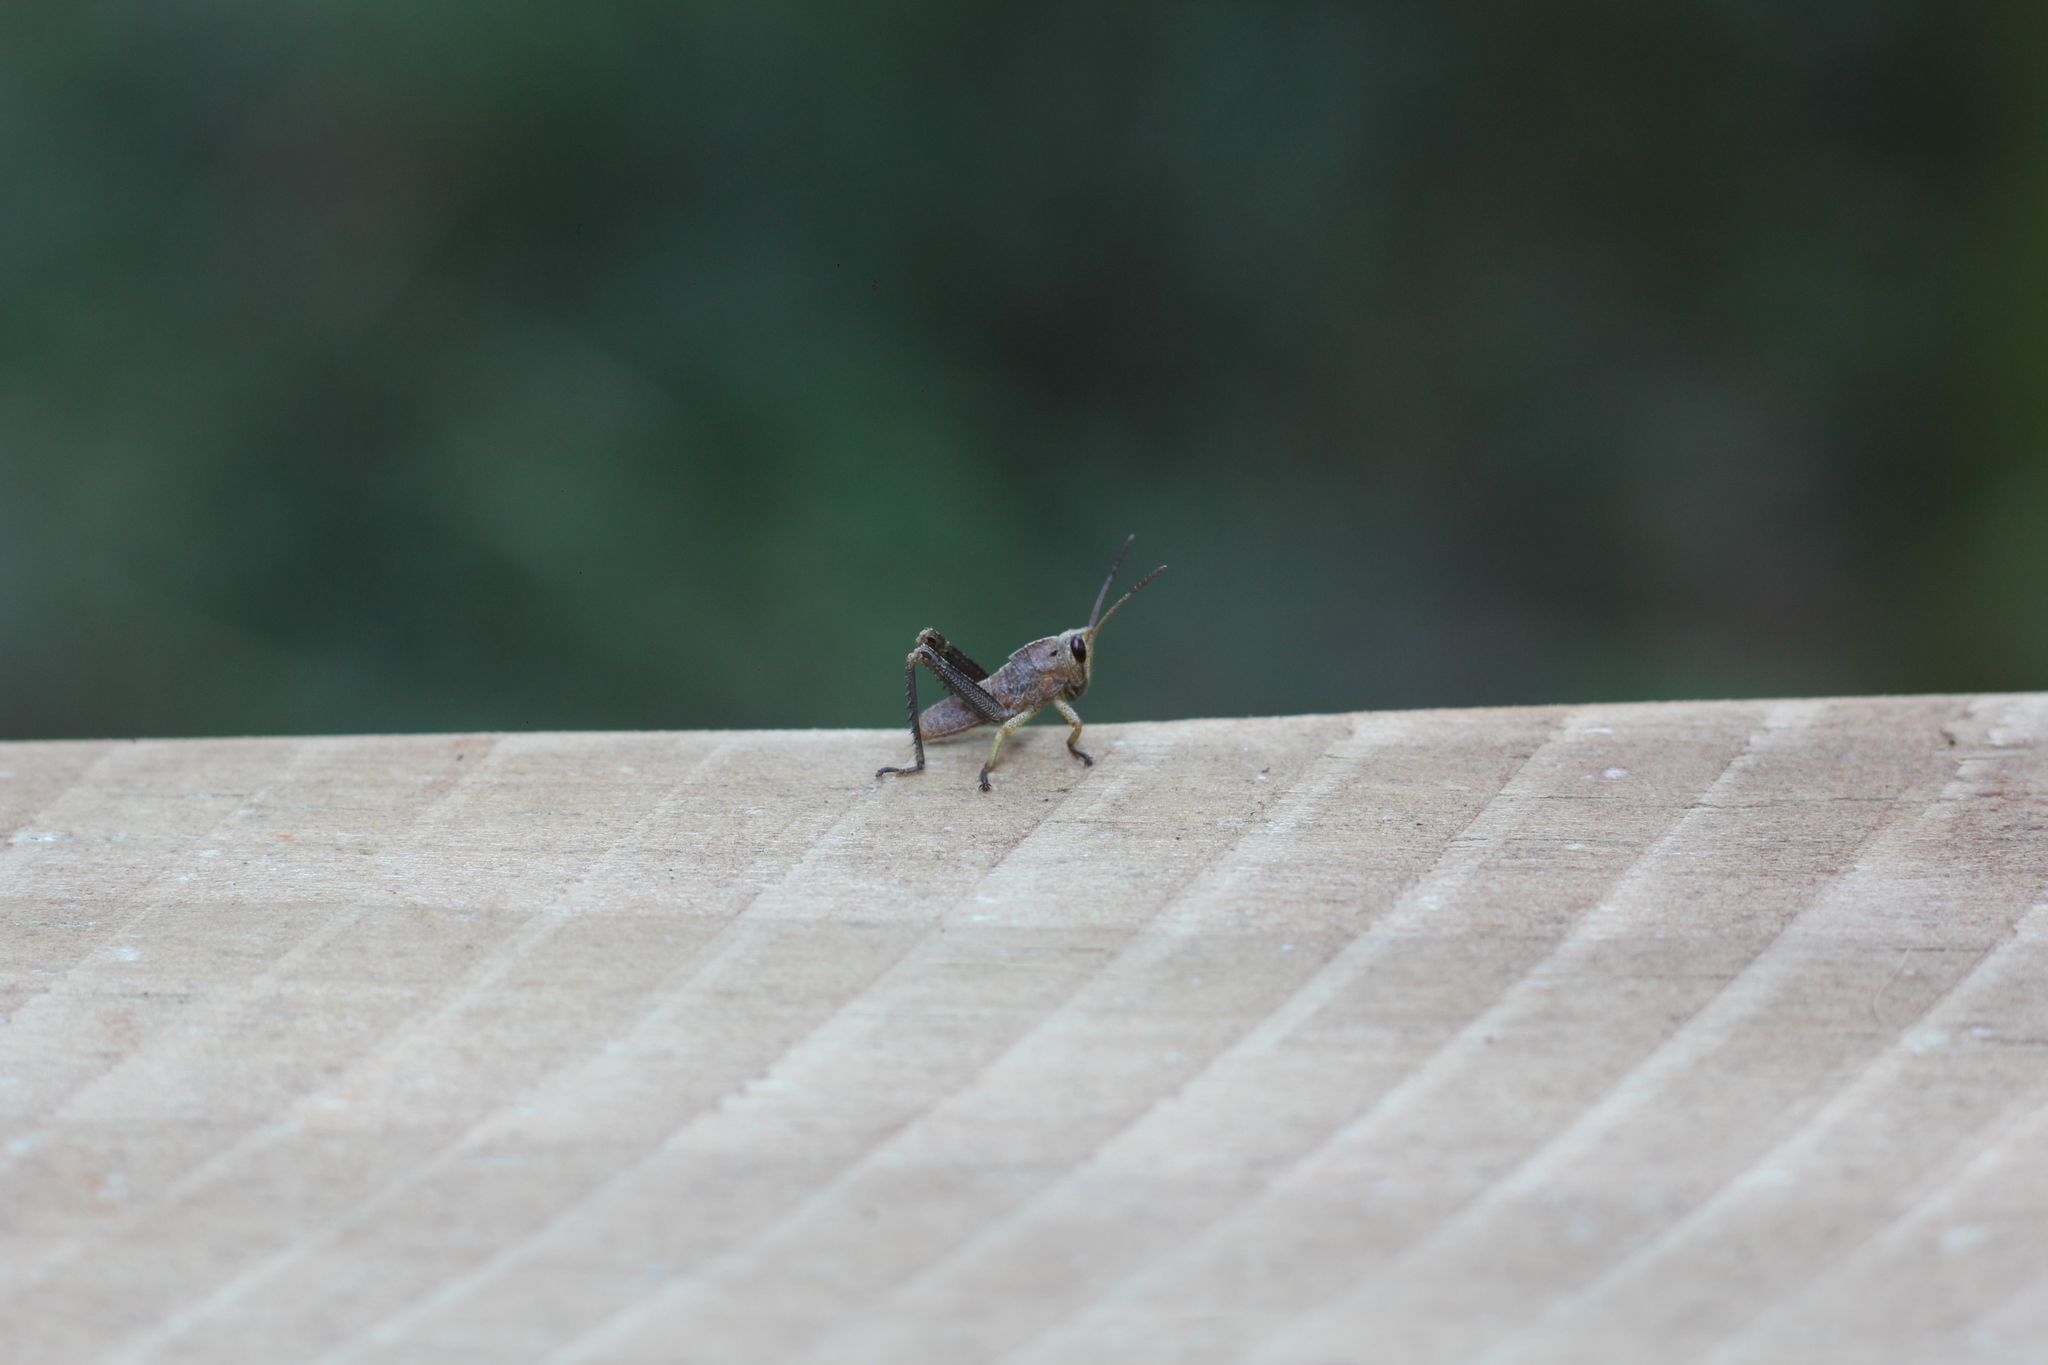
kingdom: Animalia
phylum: Arthropoda
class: Insecta
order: Orthoptera
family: Romaleidae
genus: Staleochlora
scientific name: Staleochlora arcuata
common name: Paraná purple-backed grasshopper
